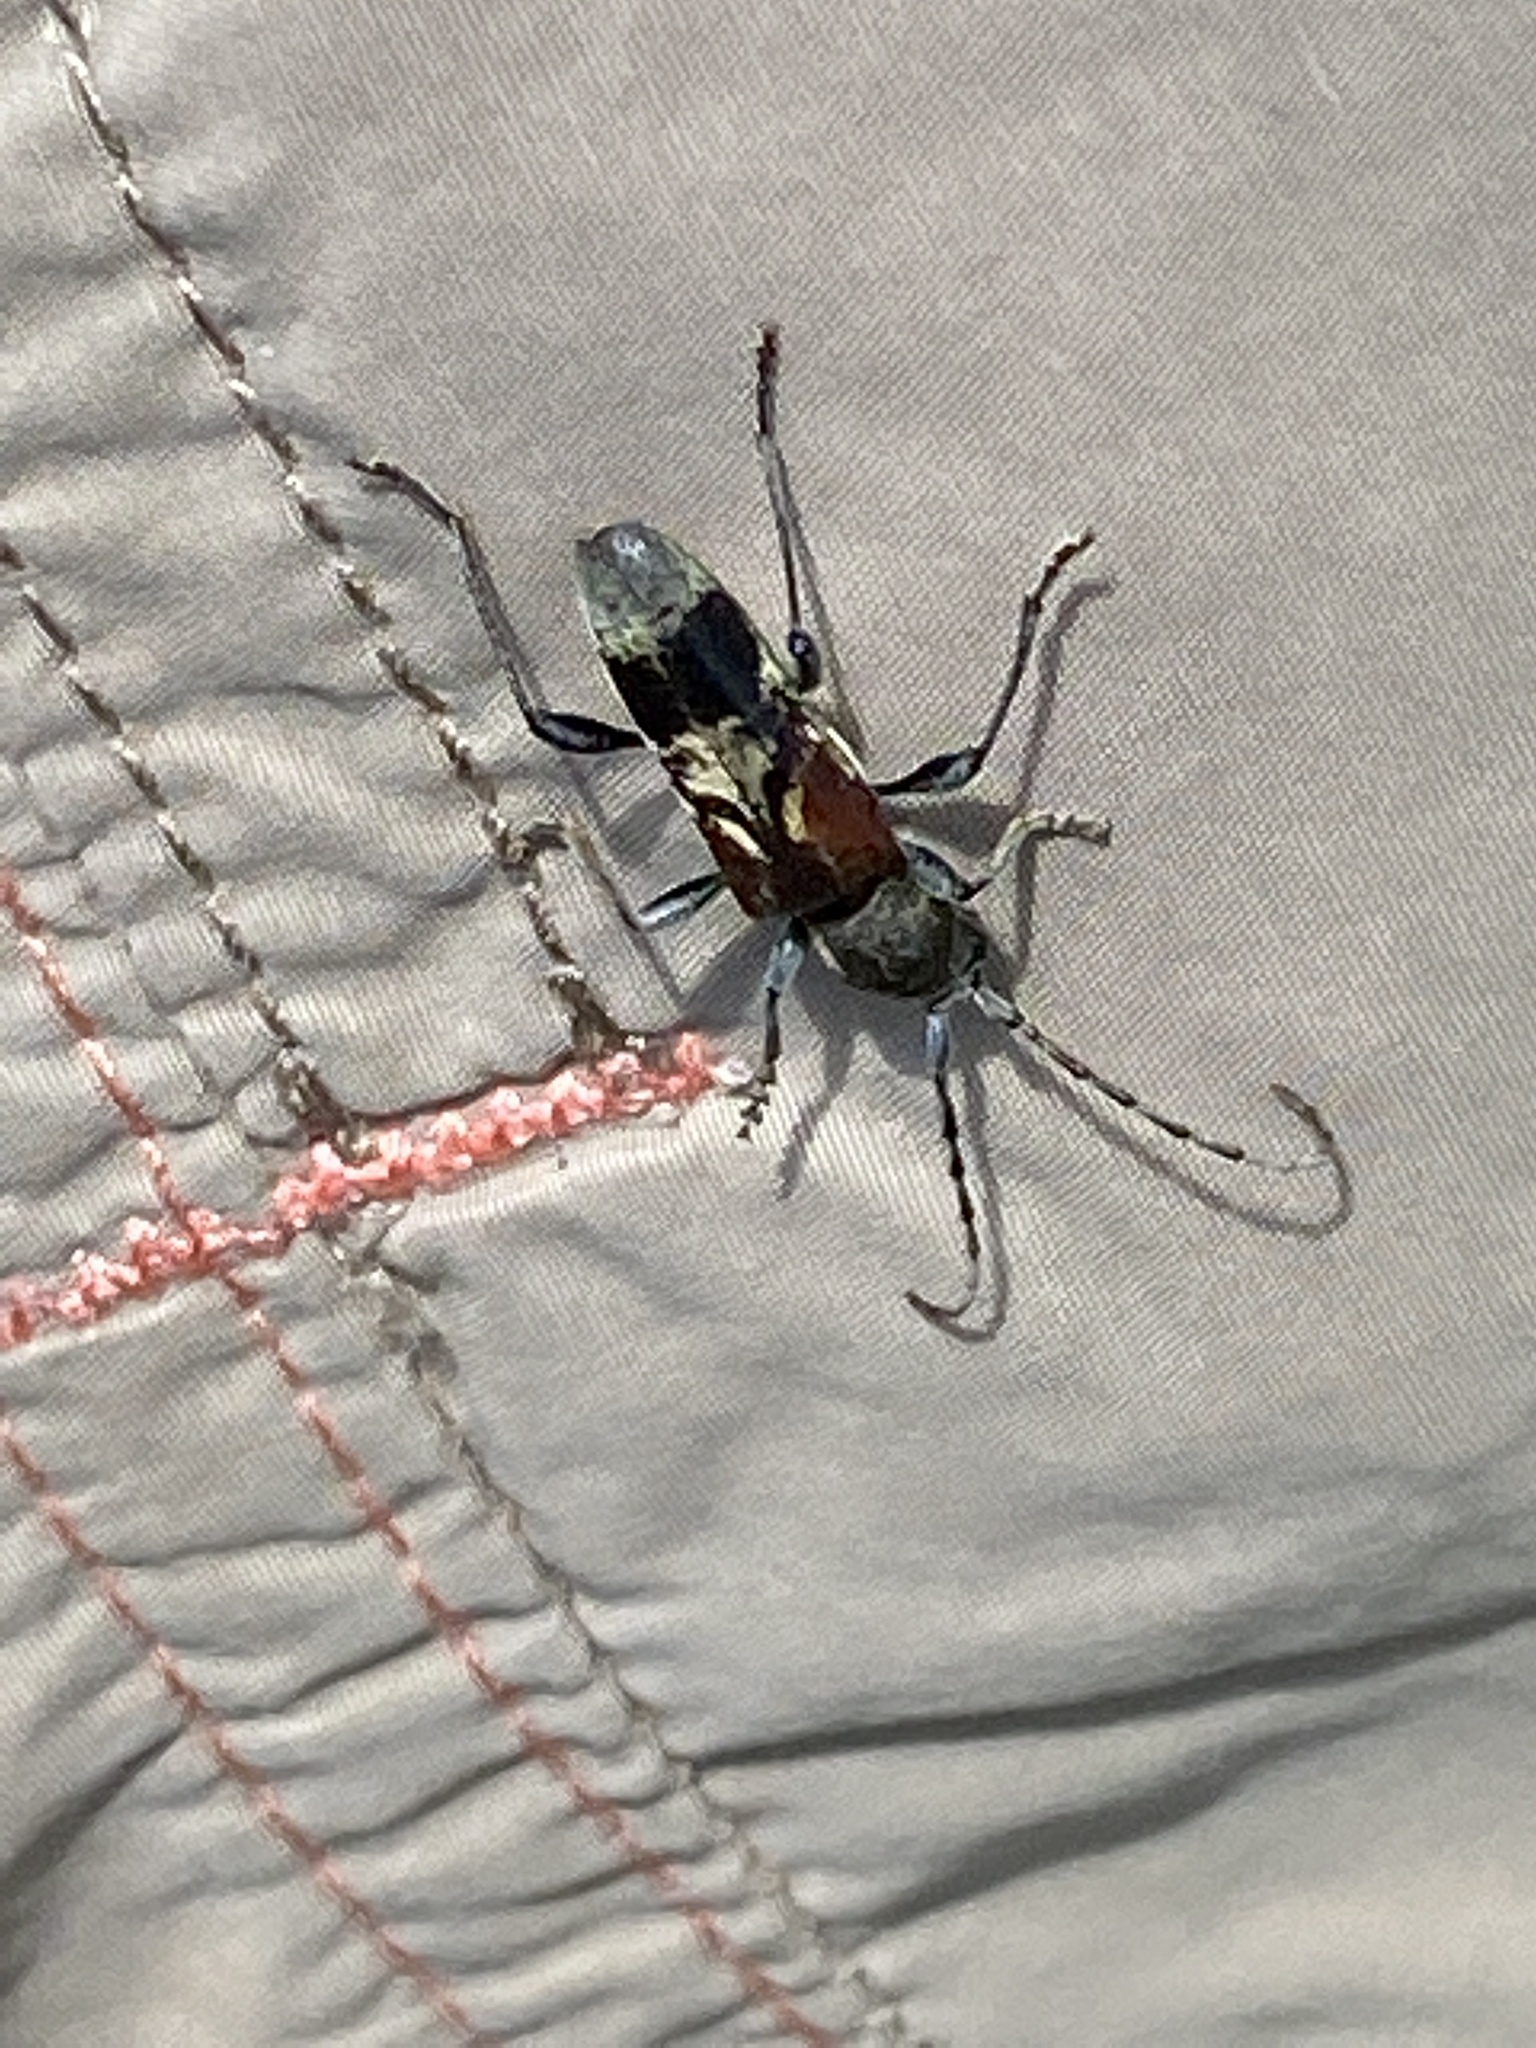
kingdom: Animalia
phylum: Arthropoda
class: Insecta
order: Coleoptera
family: Cerambycidae
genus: Anaglyptus
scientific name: Anaglyptus mysticus
